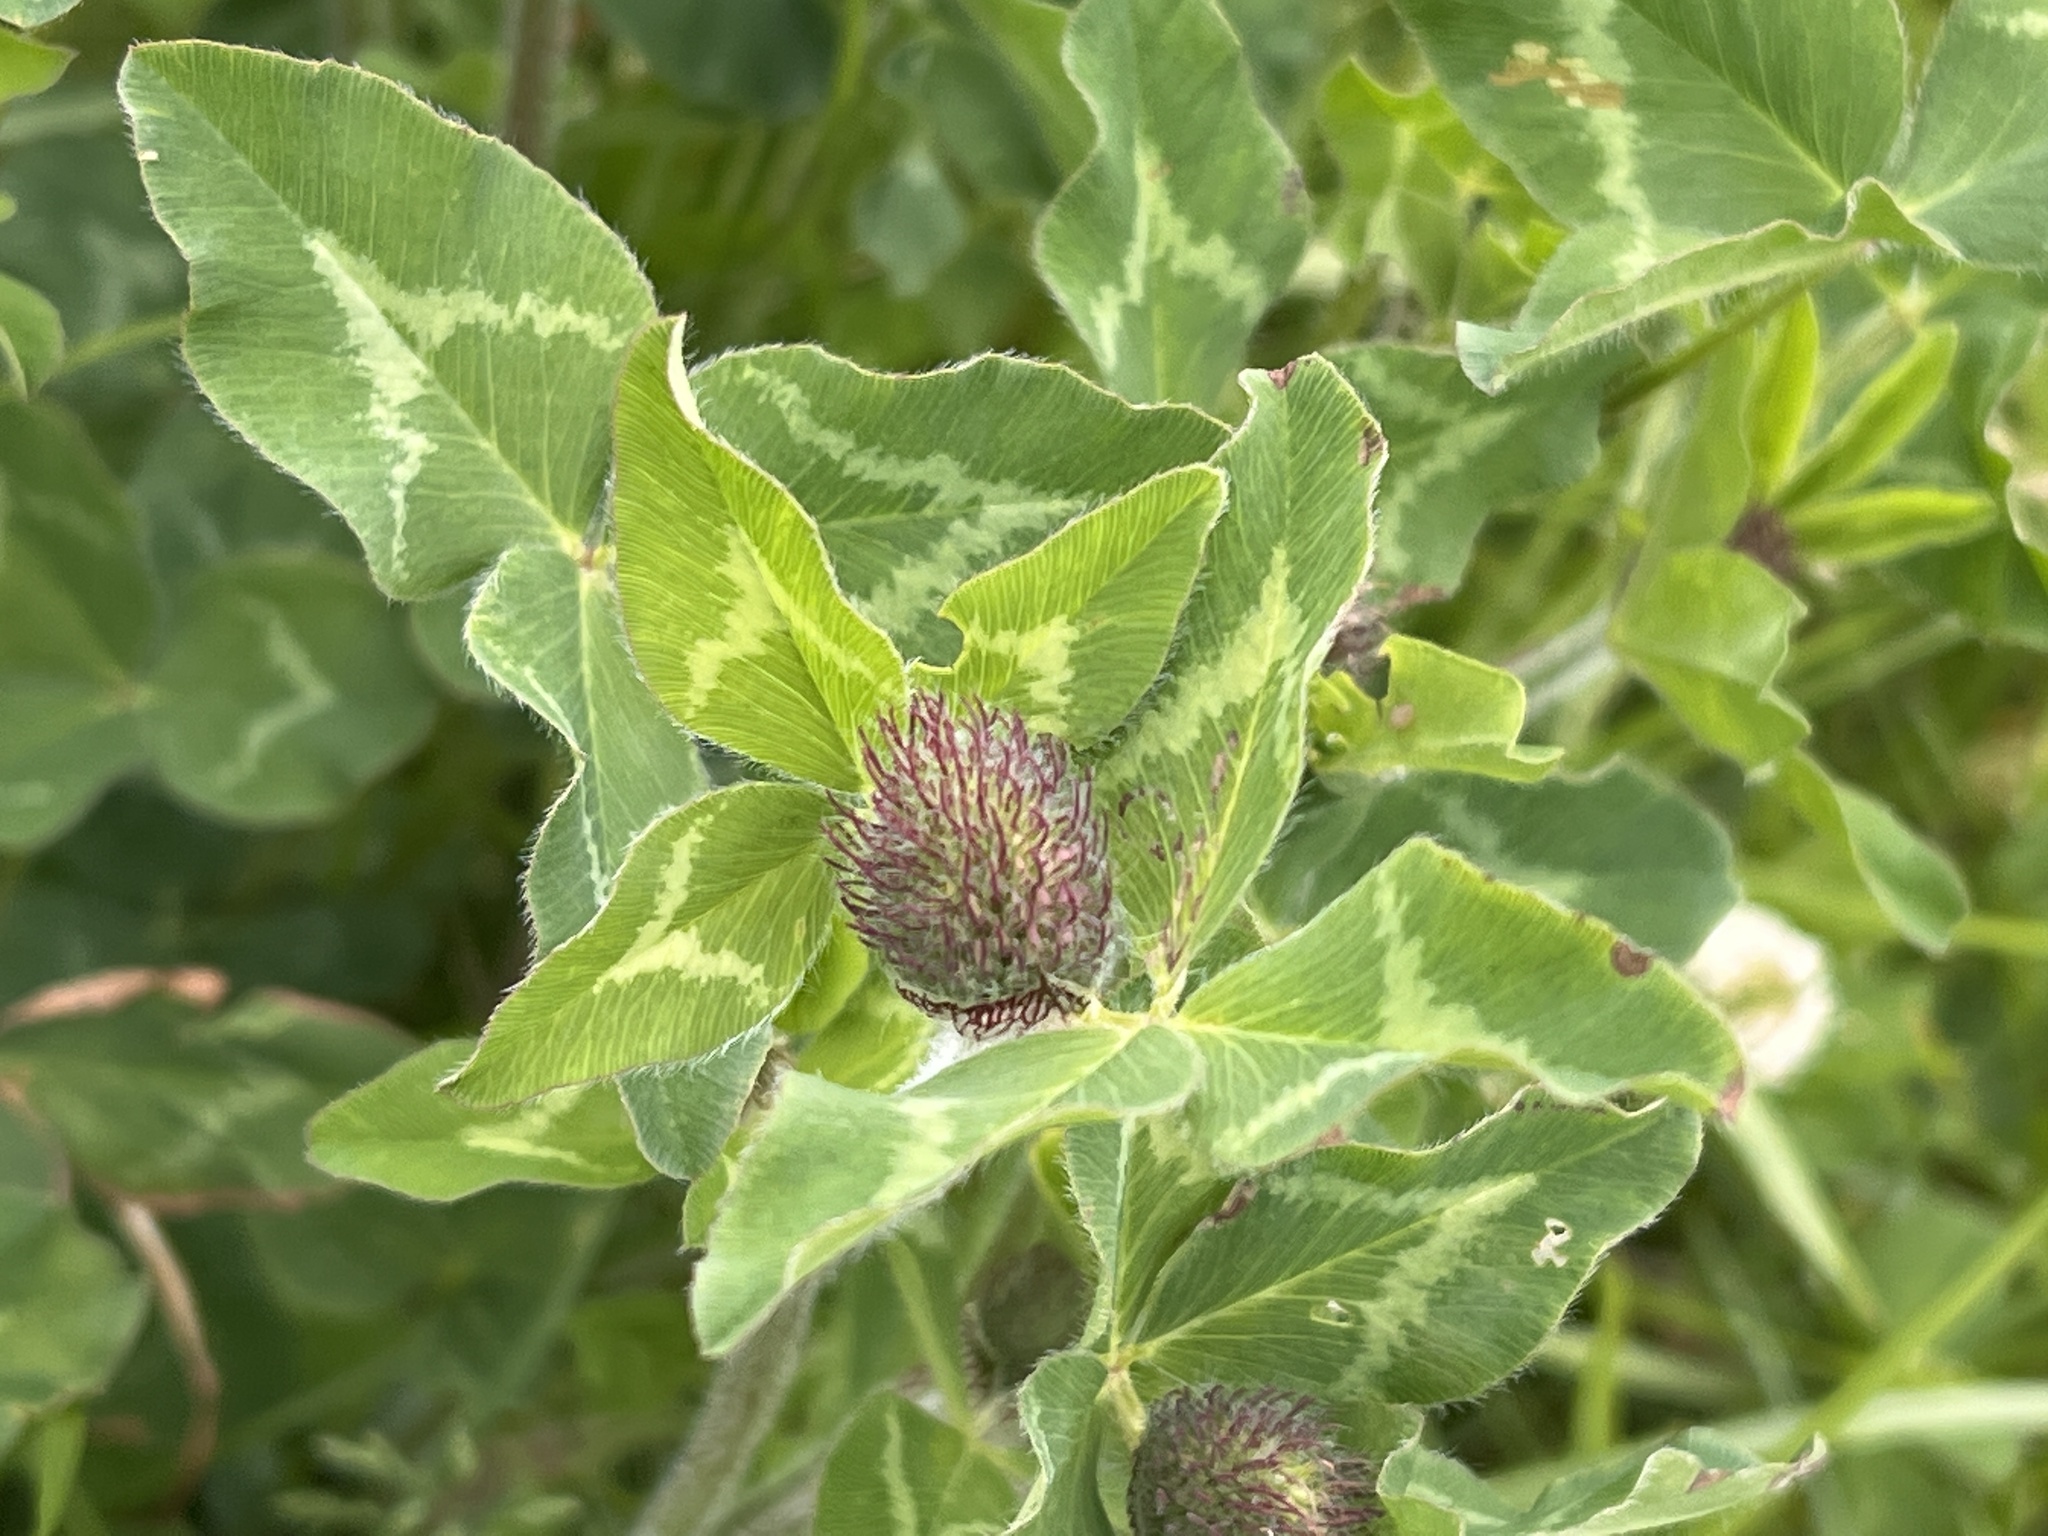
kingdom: Plantae
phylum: Tracheophyta
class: Magnoliopsida
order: Fabales
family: Fabaceae
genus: Trifolium
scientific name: Trifolium pratense
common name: Red clover
